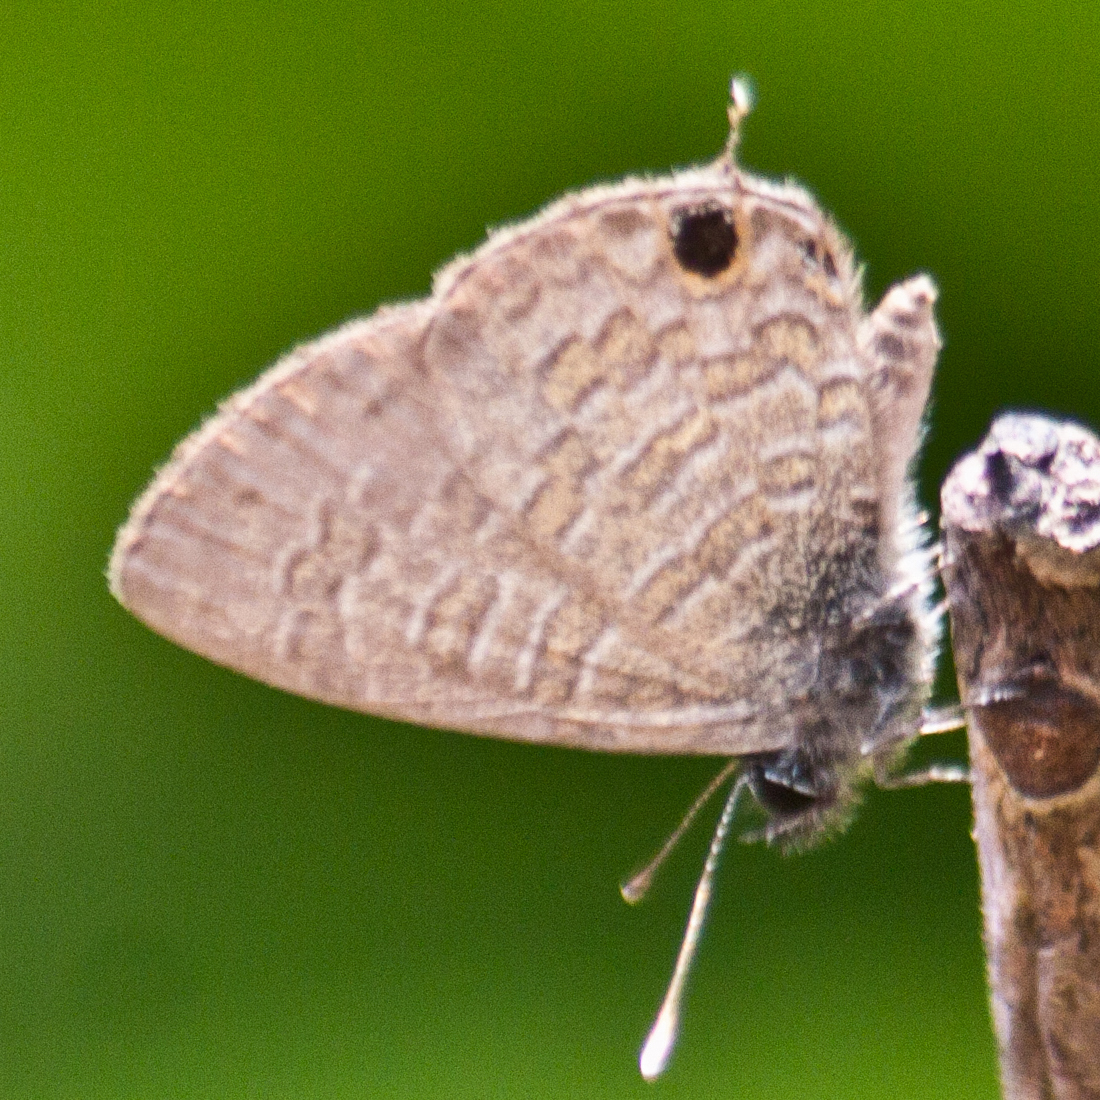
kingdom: Animalia
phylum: Arthropoda
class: Insecta
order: Lepidoptera
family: Lycaenidae
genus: Prosotas
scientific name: Prosotas nora
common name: Common line blue
